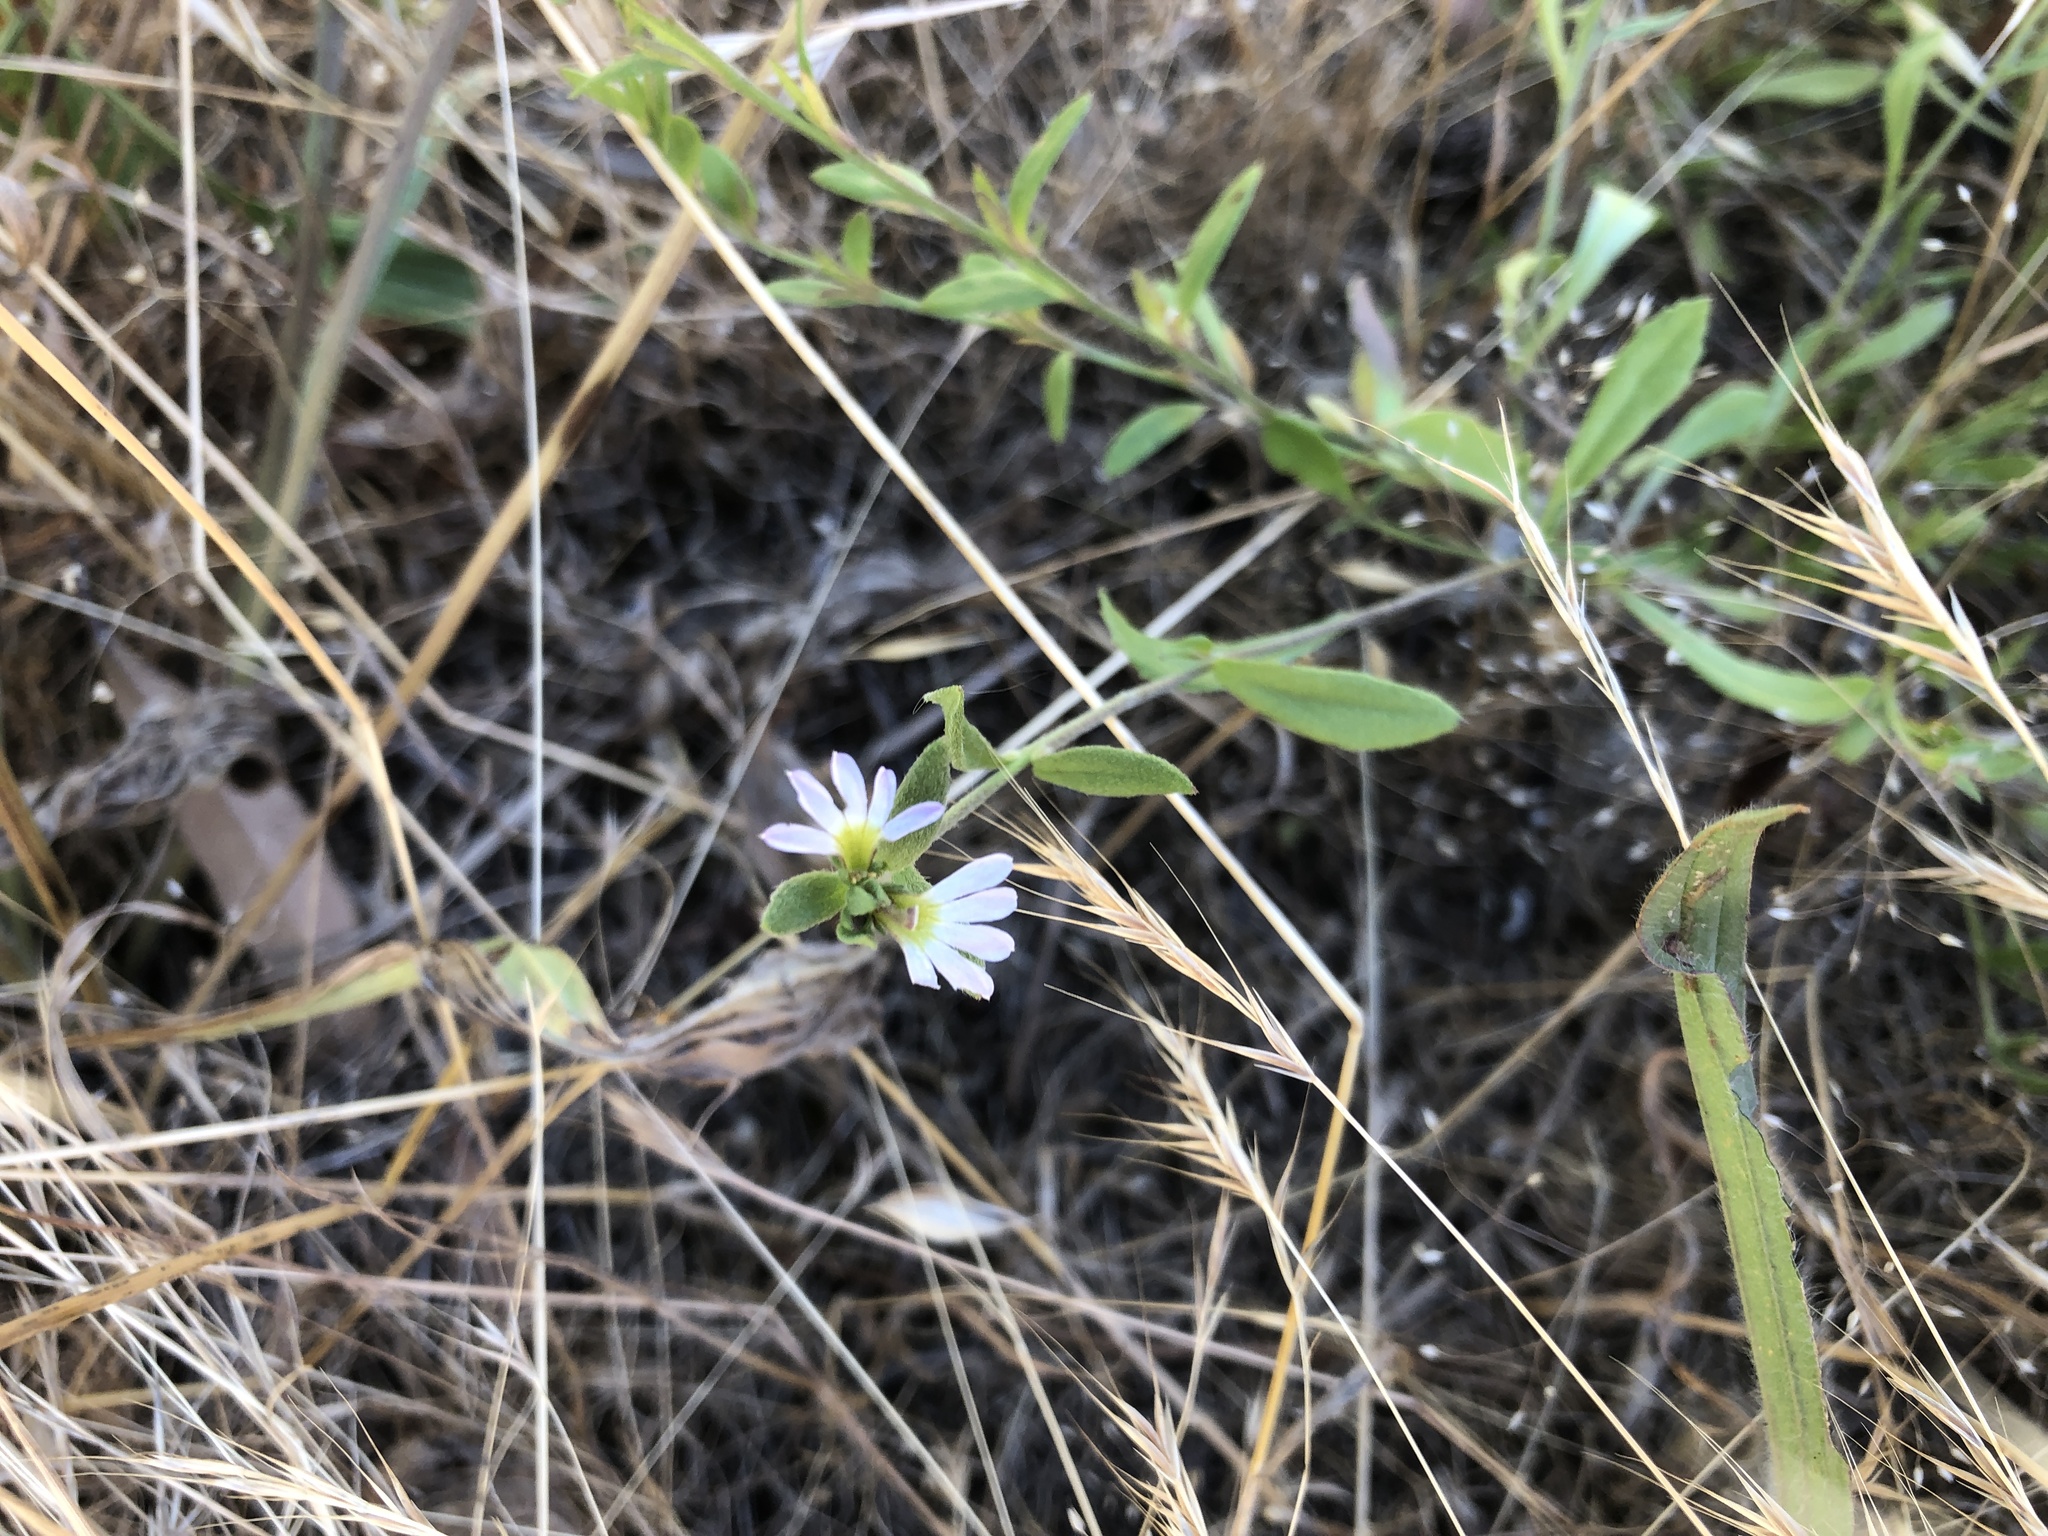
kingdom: Plantae
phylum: Tracheophyta
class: Magnoliopsida
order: Asterales
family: Goodeniaceae
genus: Scaevola
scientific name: Scaevola albida
